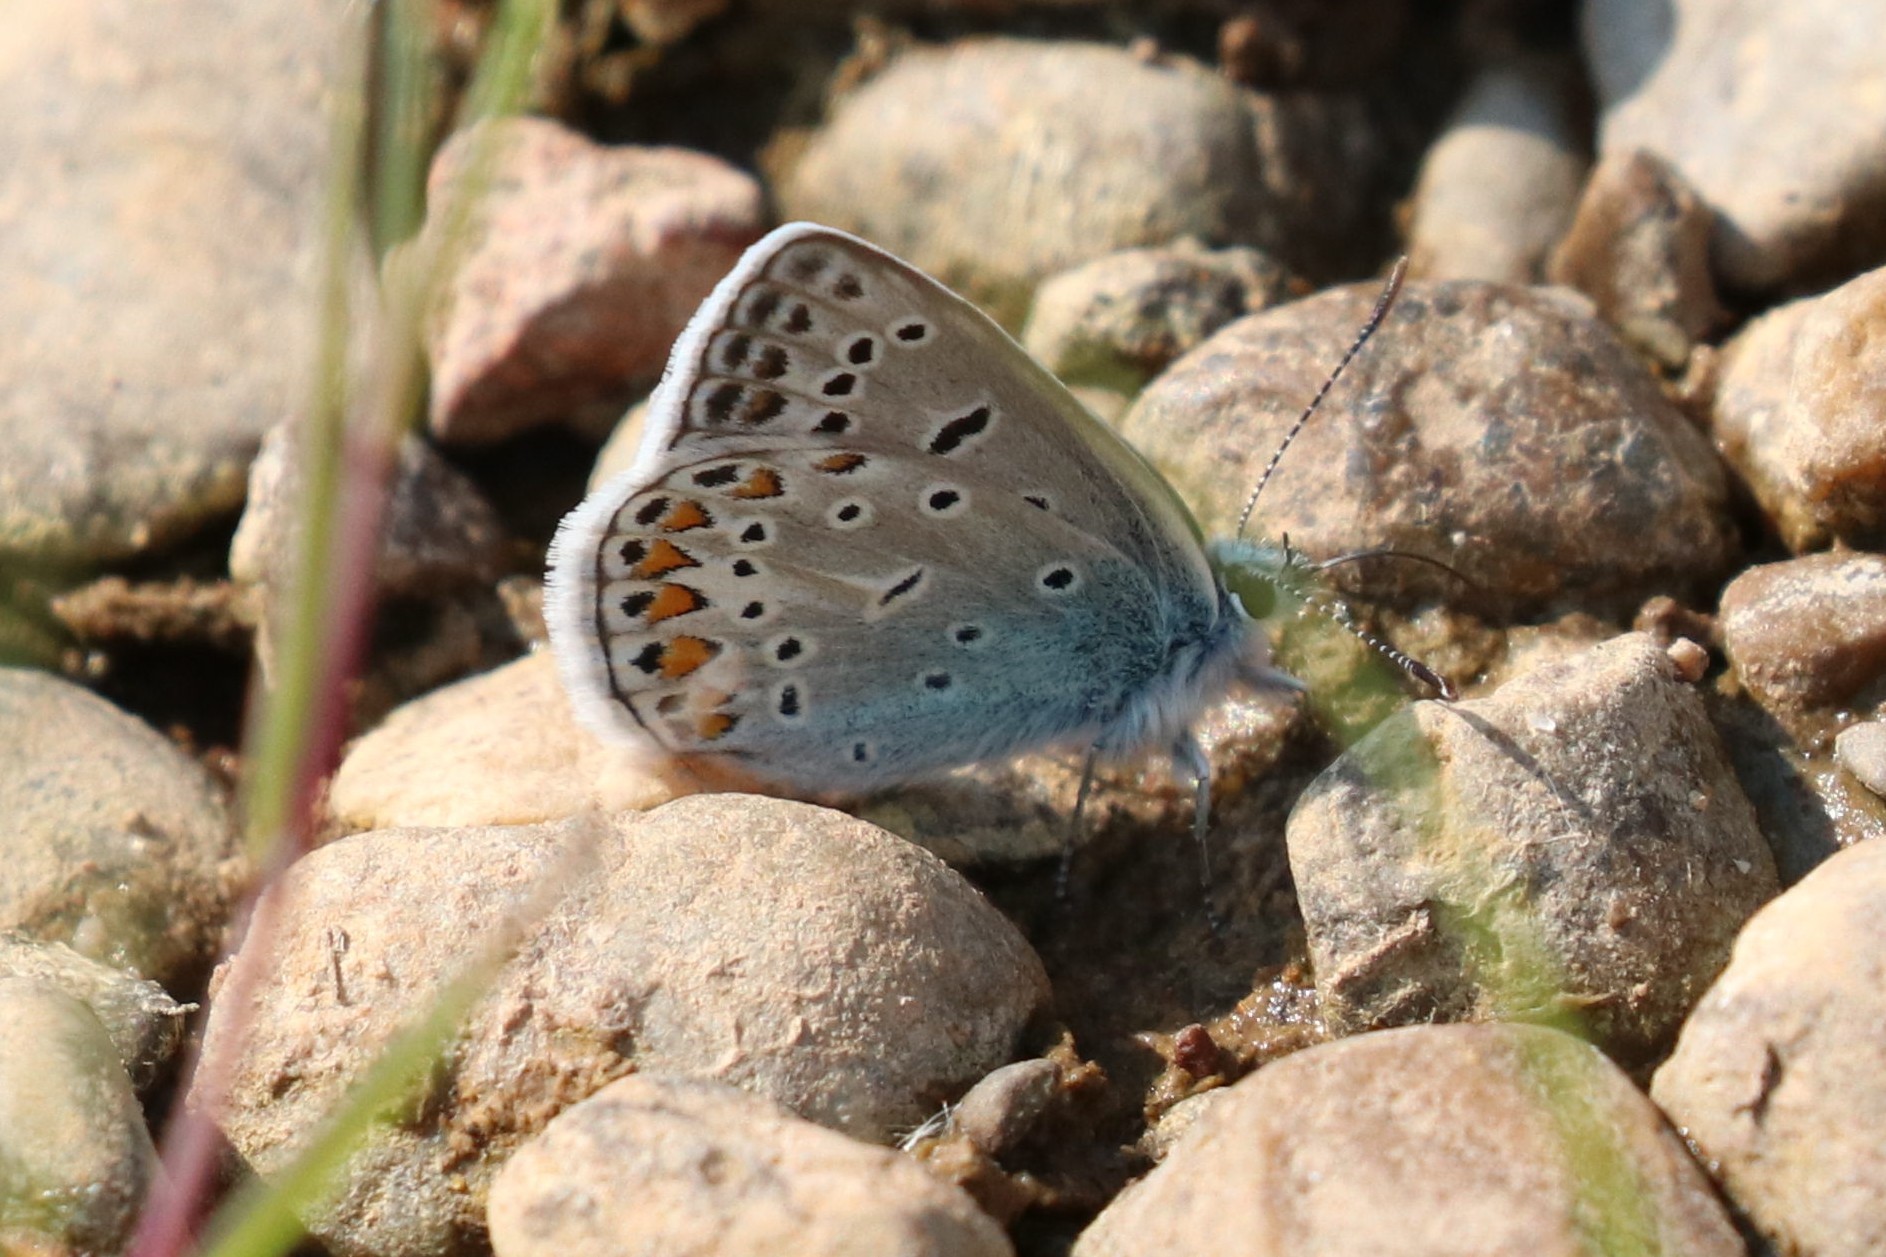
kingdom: Animalia
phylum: Arthropoda
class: Insecta
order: Lepidoptera
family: Lycaenidae
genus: Polyommatus
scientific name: Polyommatus icarus
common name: Common blue
